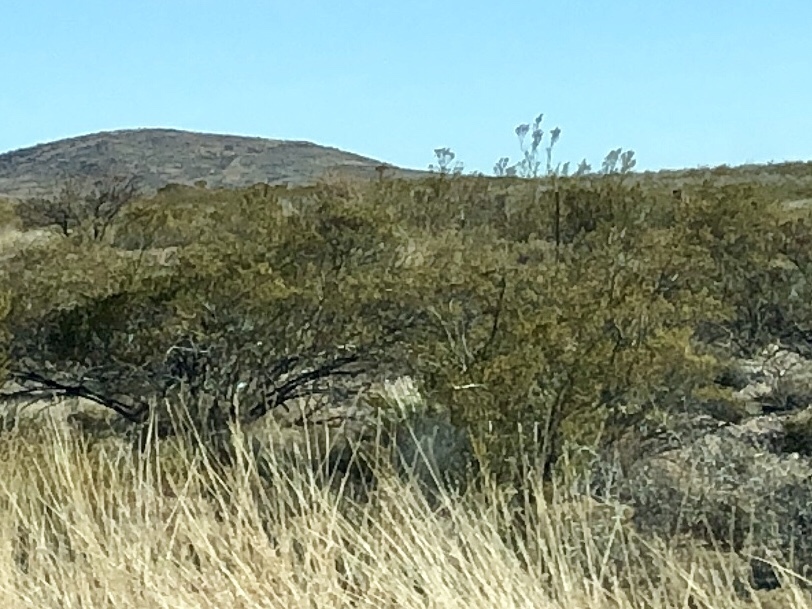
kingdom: Plantae
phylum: Tracheophyta
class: Magnoliopsida
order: Zygophyllales
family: Zygophyllaceae
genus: Larrea
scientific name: Larrea tridentata
